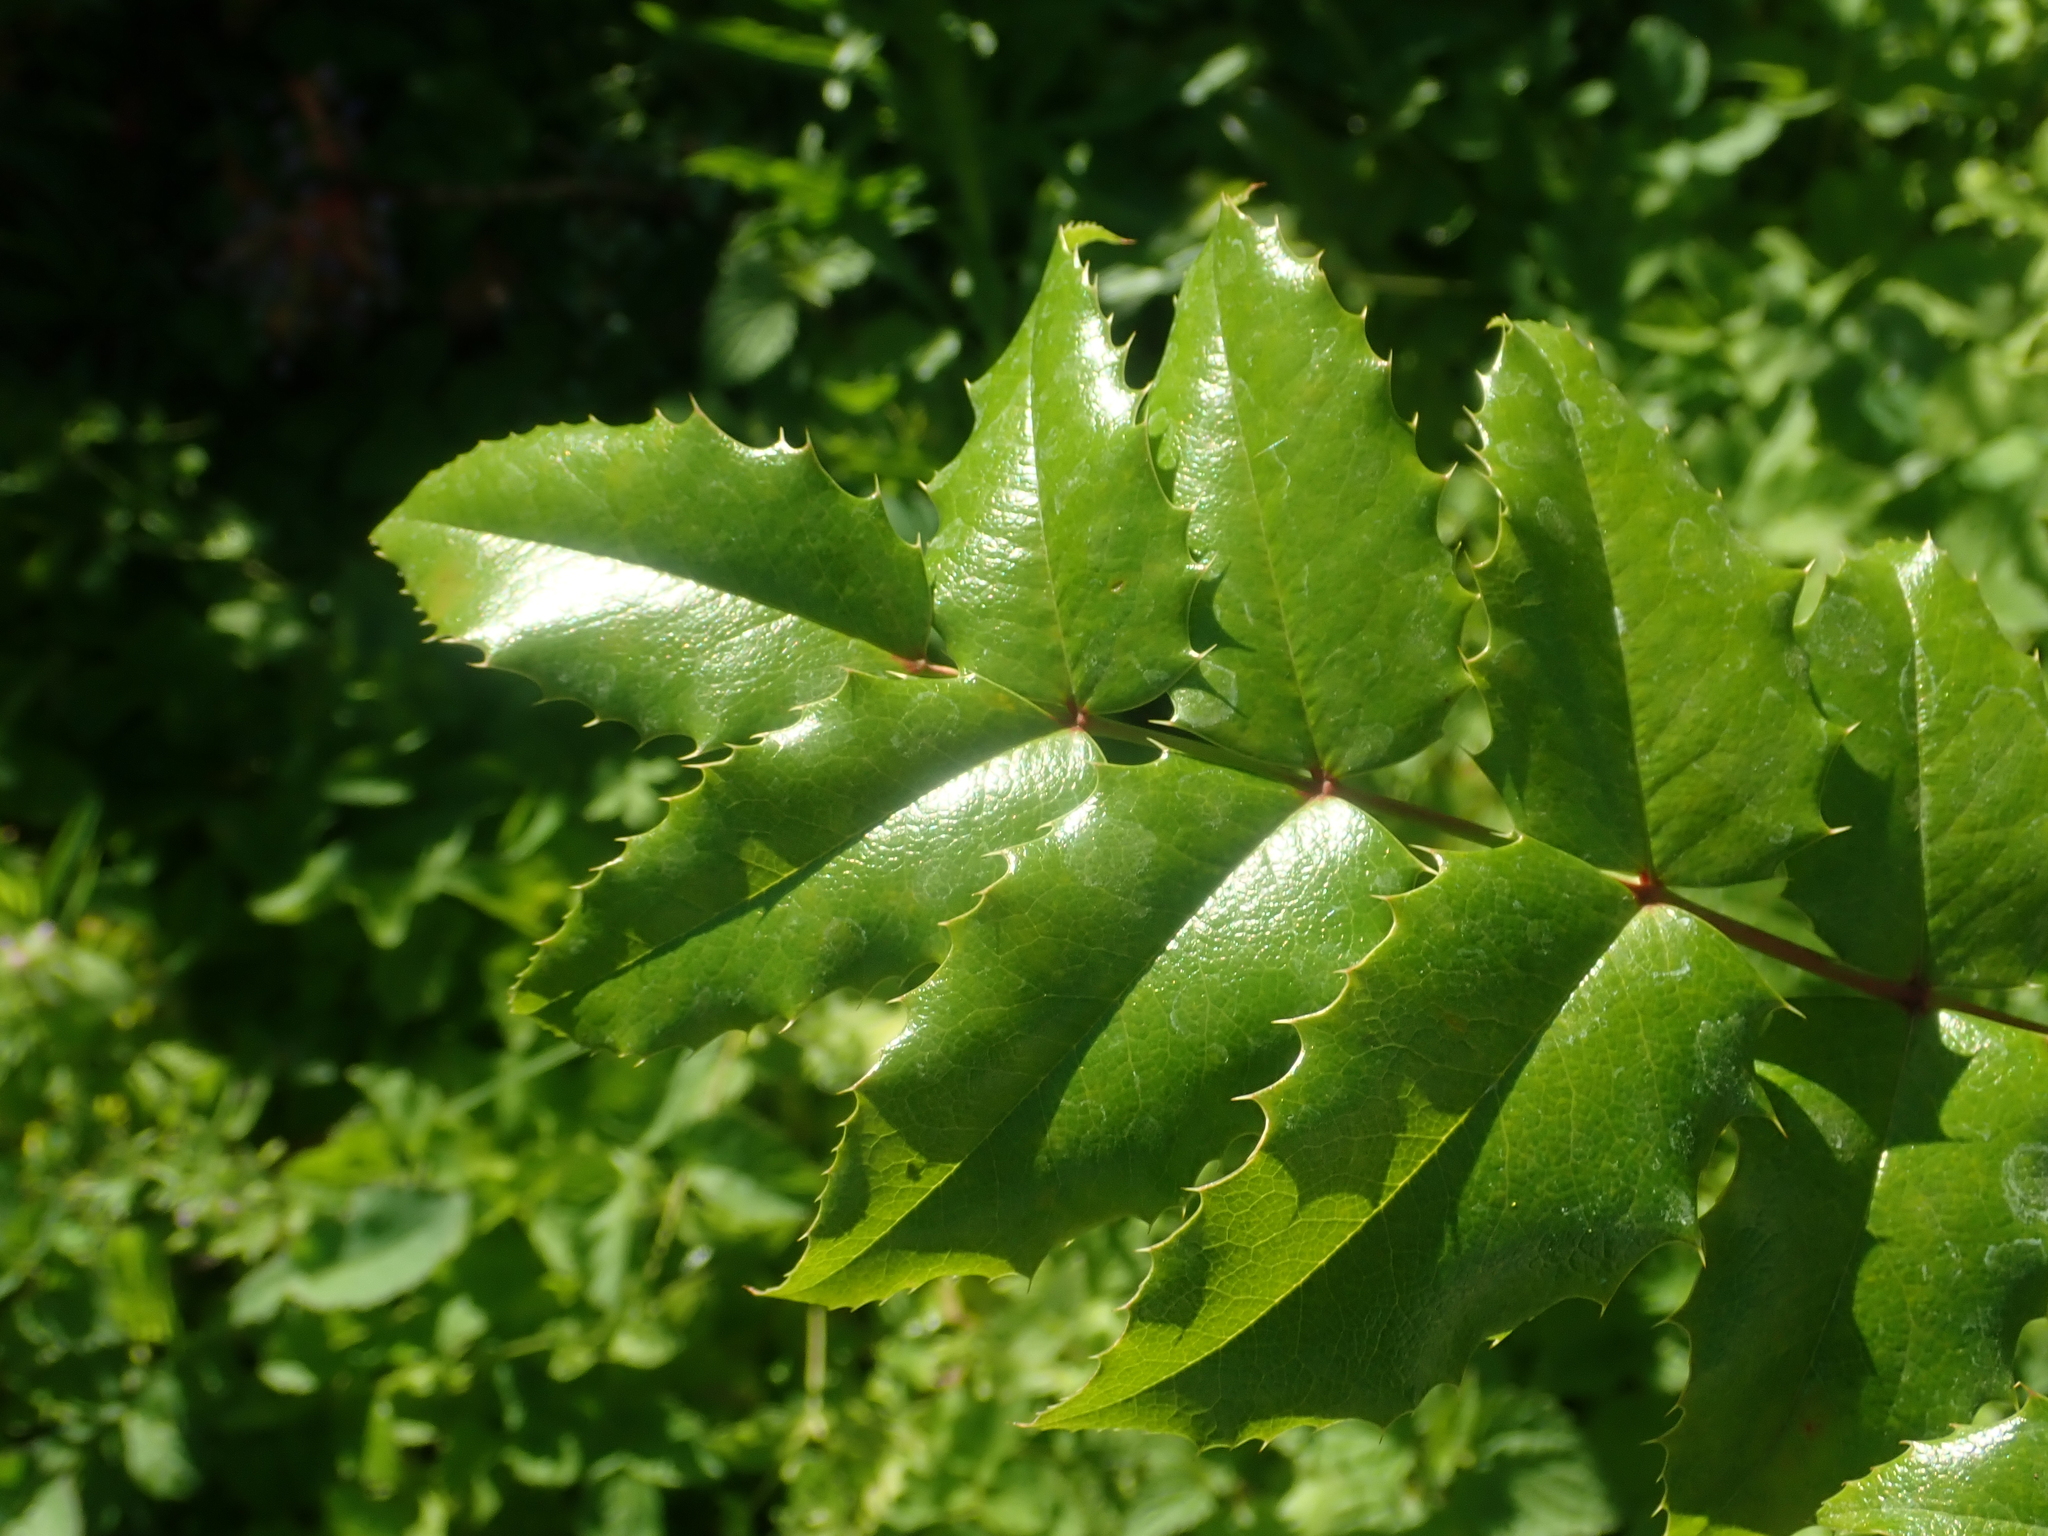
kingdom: Plantae
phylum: Tracheophyta
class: Magnoliopsida
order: Ranunculales
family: Berberidaceae
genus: Mahonia
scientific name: Mahonia aquifolium
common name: Oregon-grape
